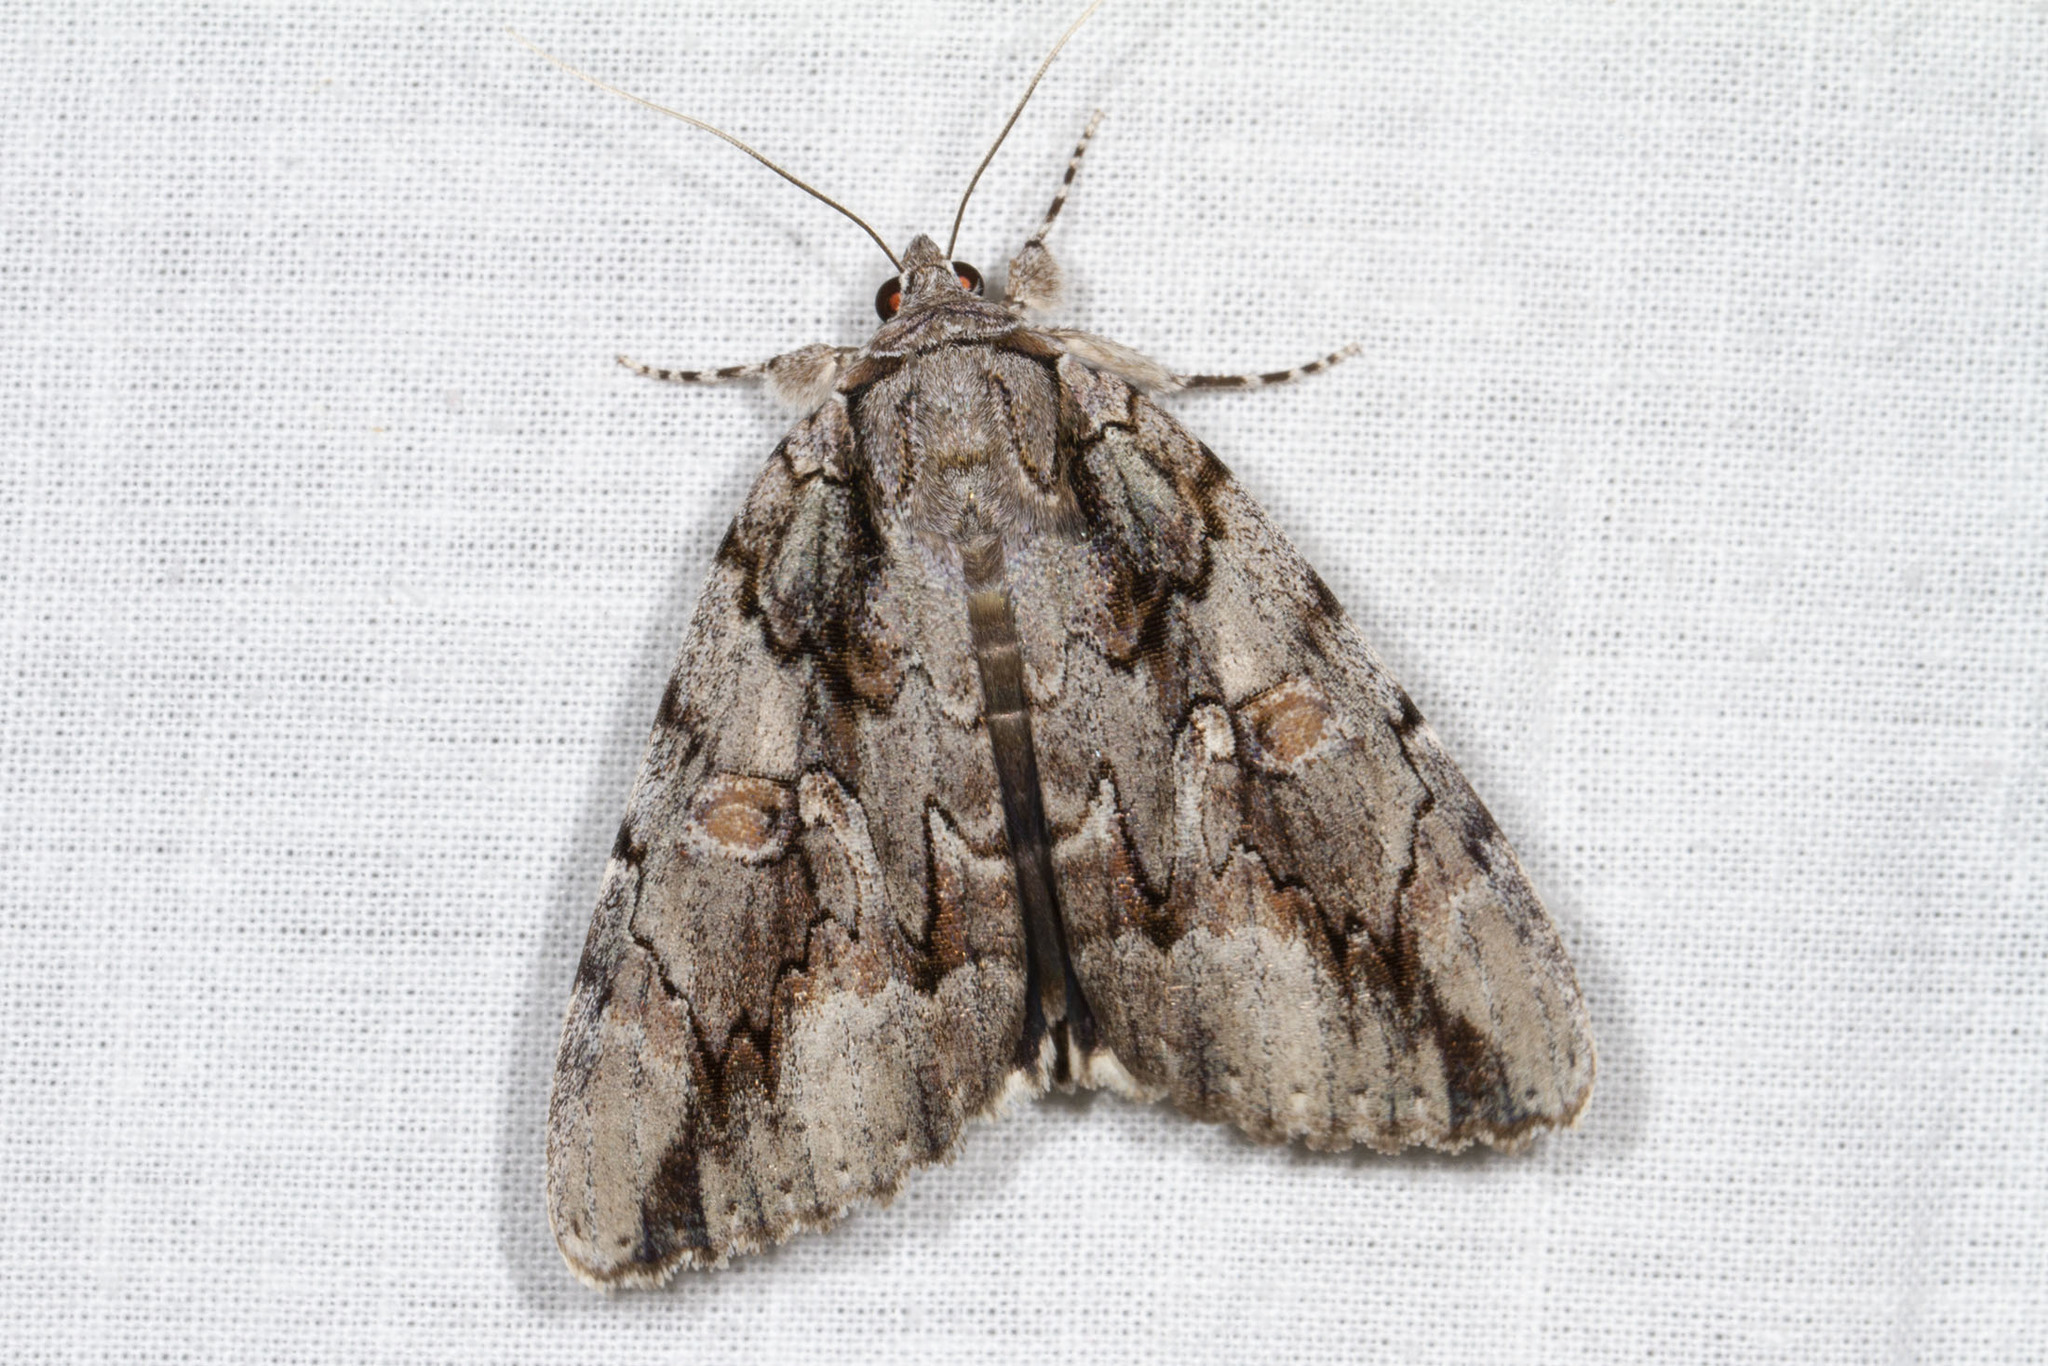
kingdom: Animalia
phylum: Arthropoda
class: Insecta
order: Lepidoptera
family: Erebidae
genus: Catocala
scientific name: Catocala flebilis
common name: Mournful underwing
